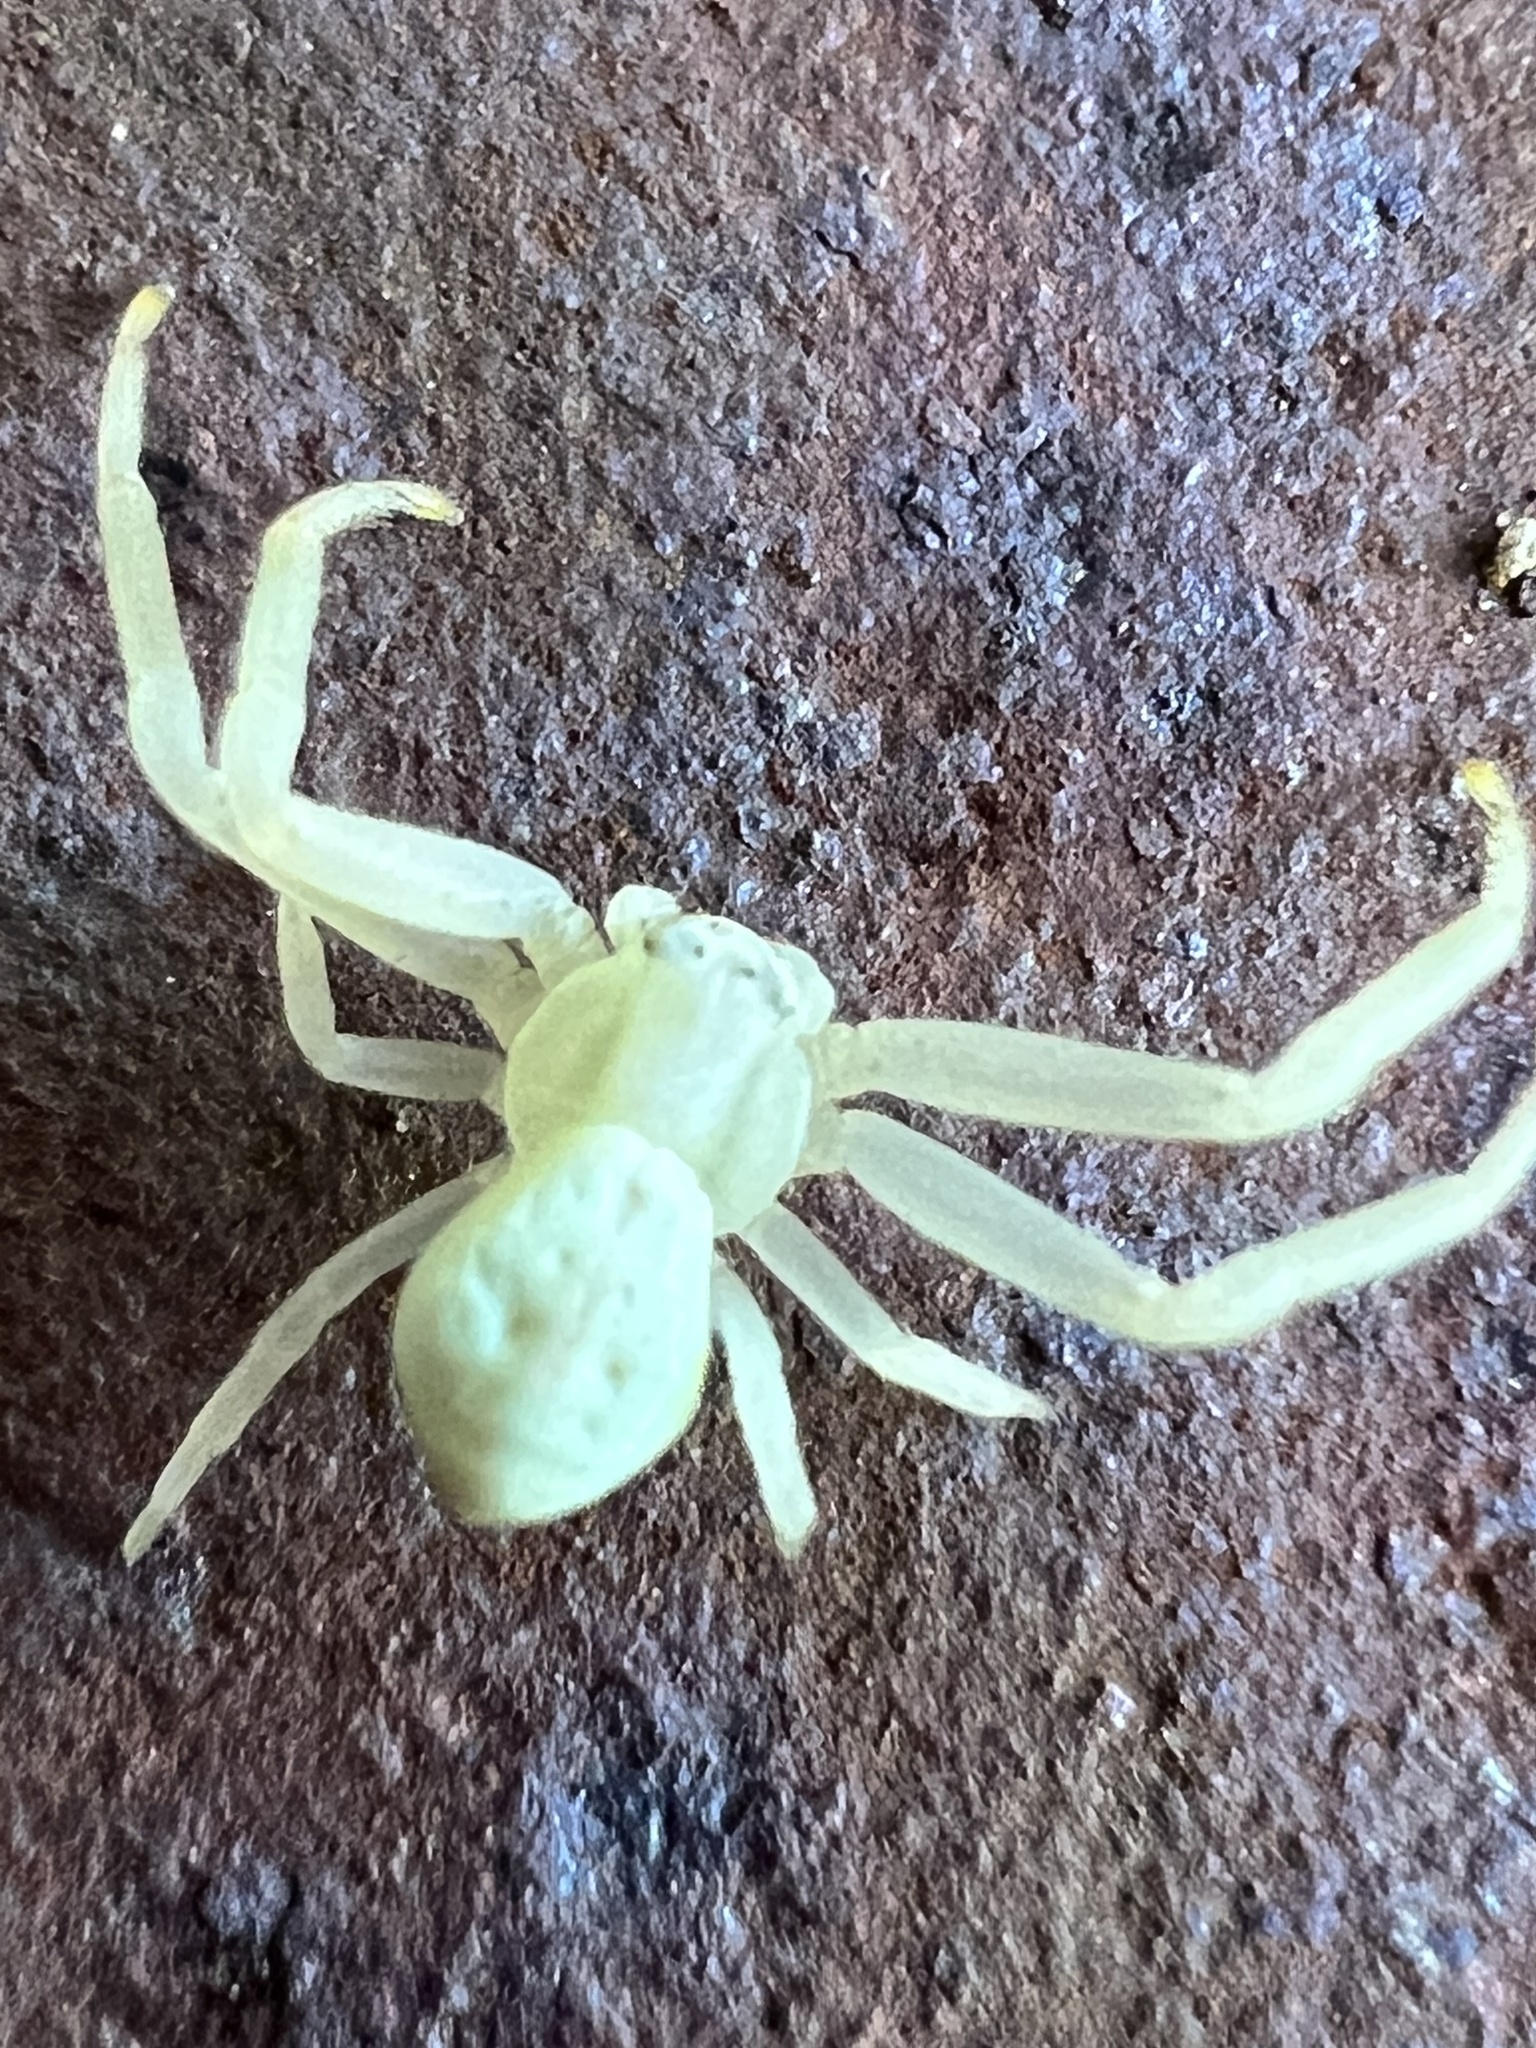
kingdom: Animalia
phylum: Arthropoda
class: Arachnida
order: Araneae
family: Thomisidae
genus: Misumena
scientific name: Misumena vatia
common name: Goldenrod crab spider
